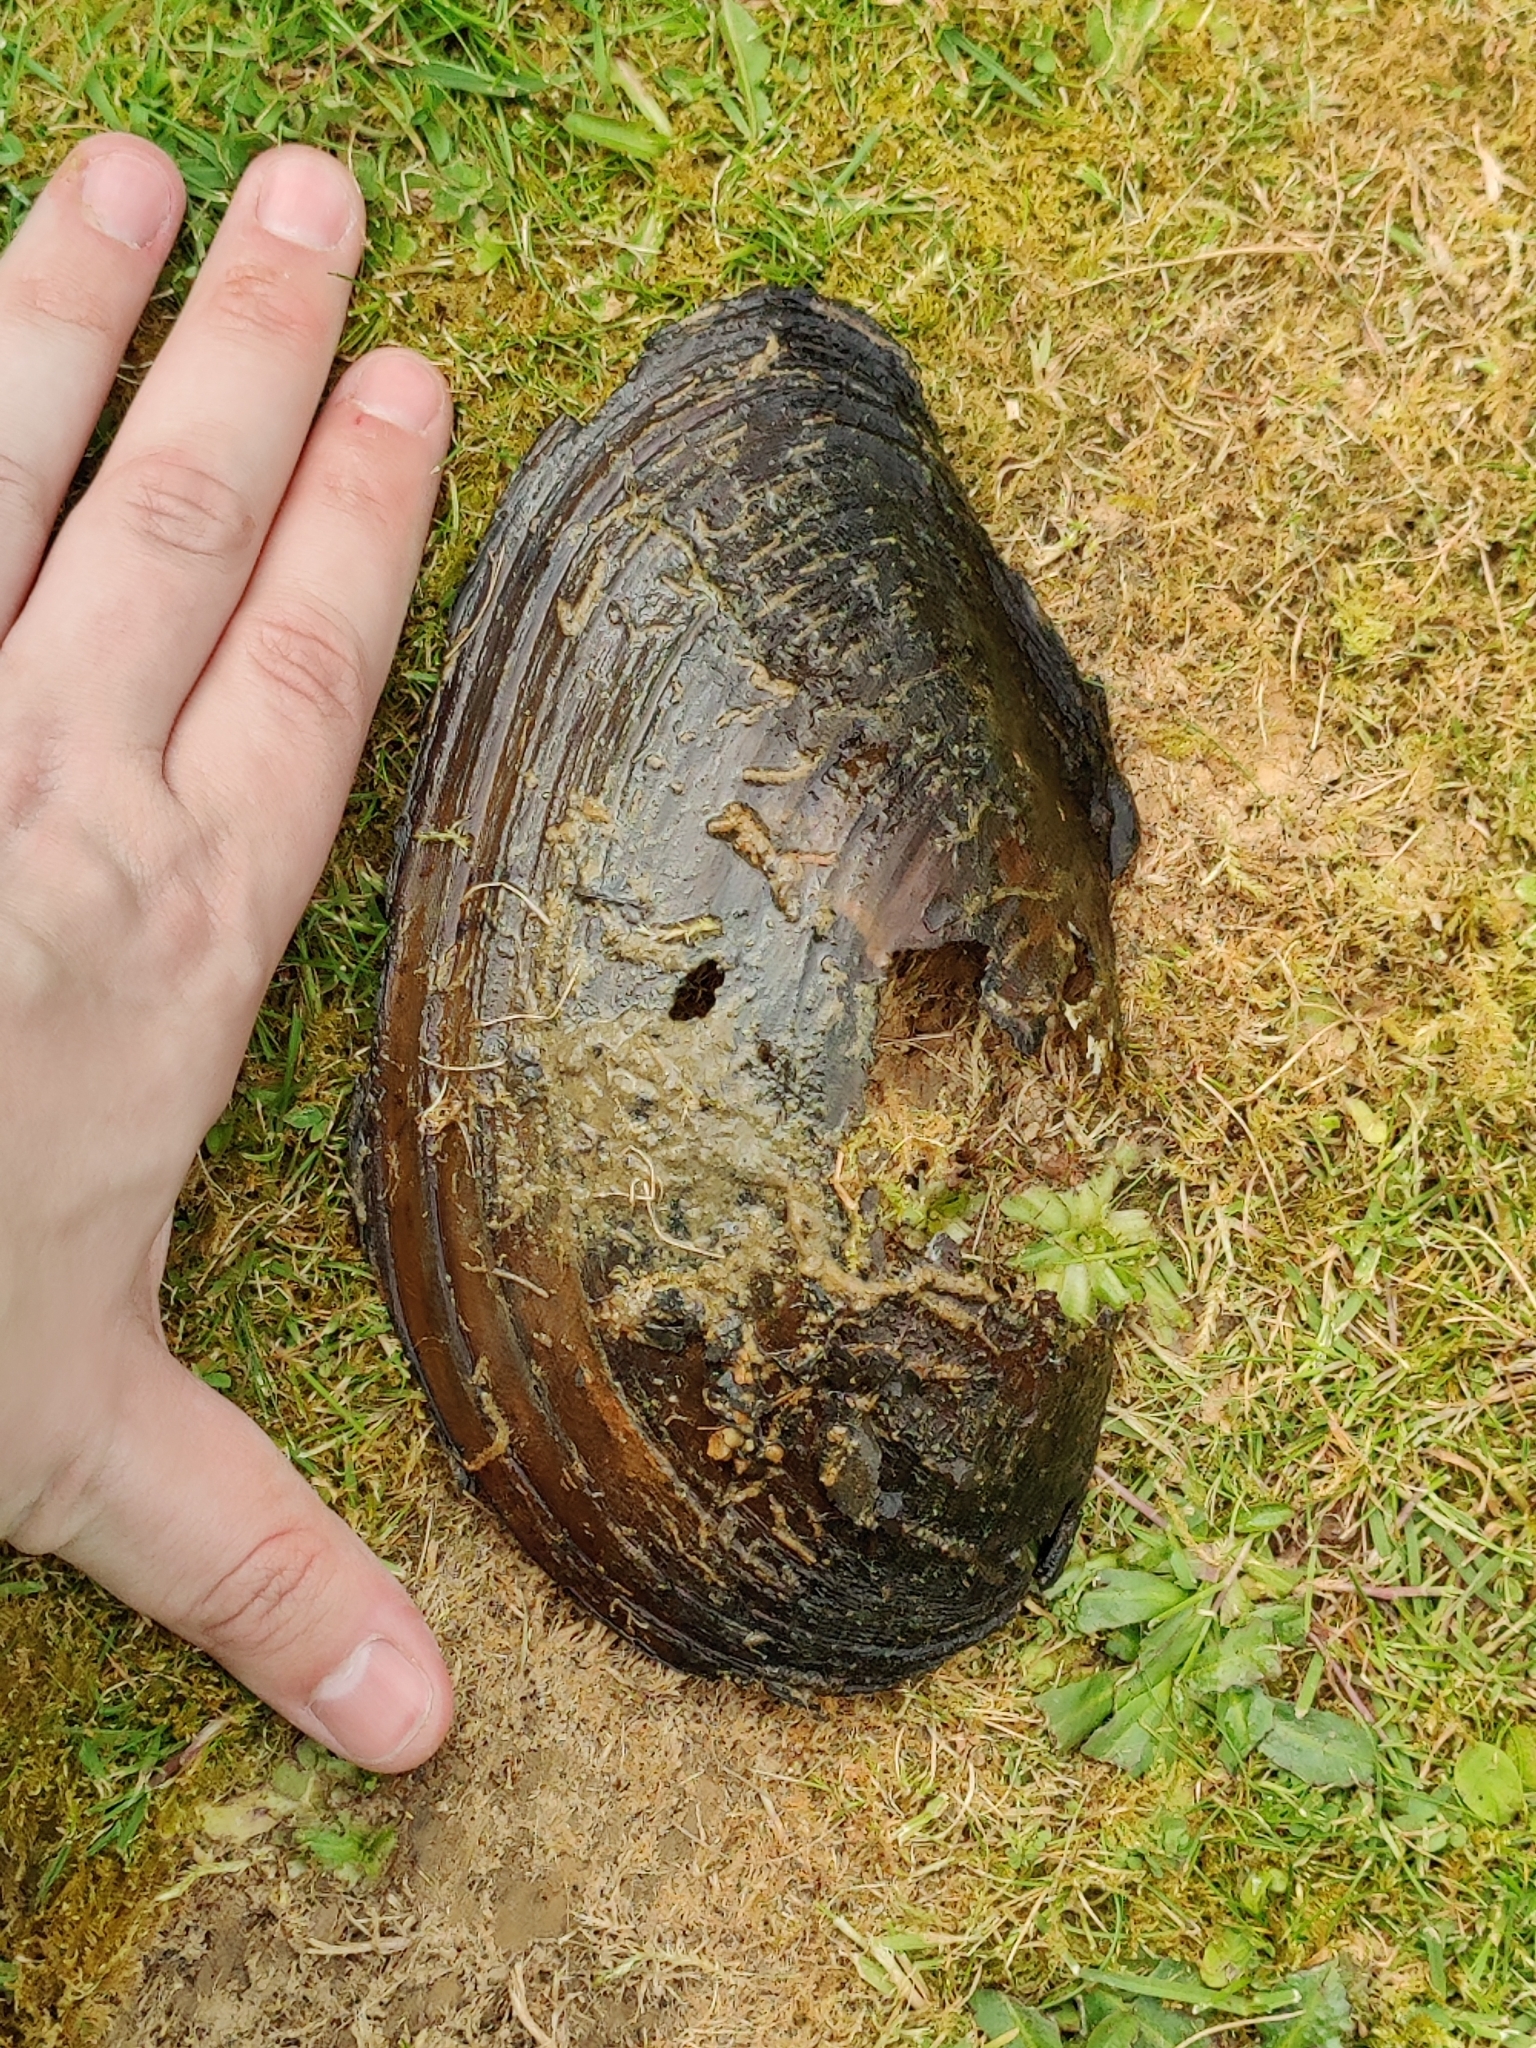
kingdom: Animalia
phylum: Mollusca
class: Bivalvia
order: Unionida
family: Unionidae
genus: Anodonta
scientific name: Anodonta cygnea
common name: Swan mussel
